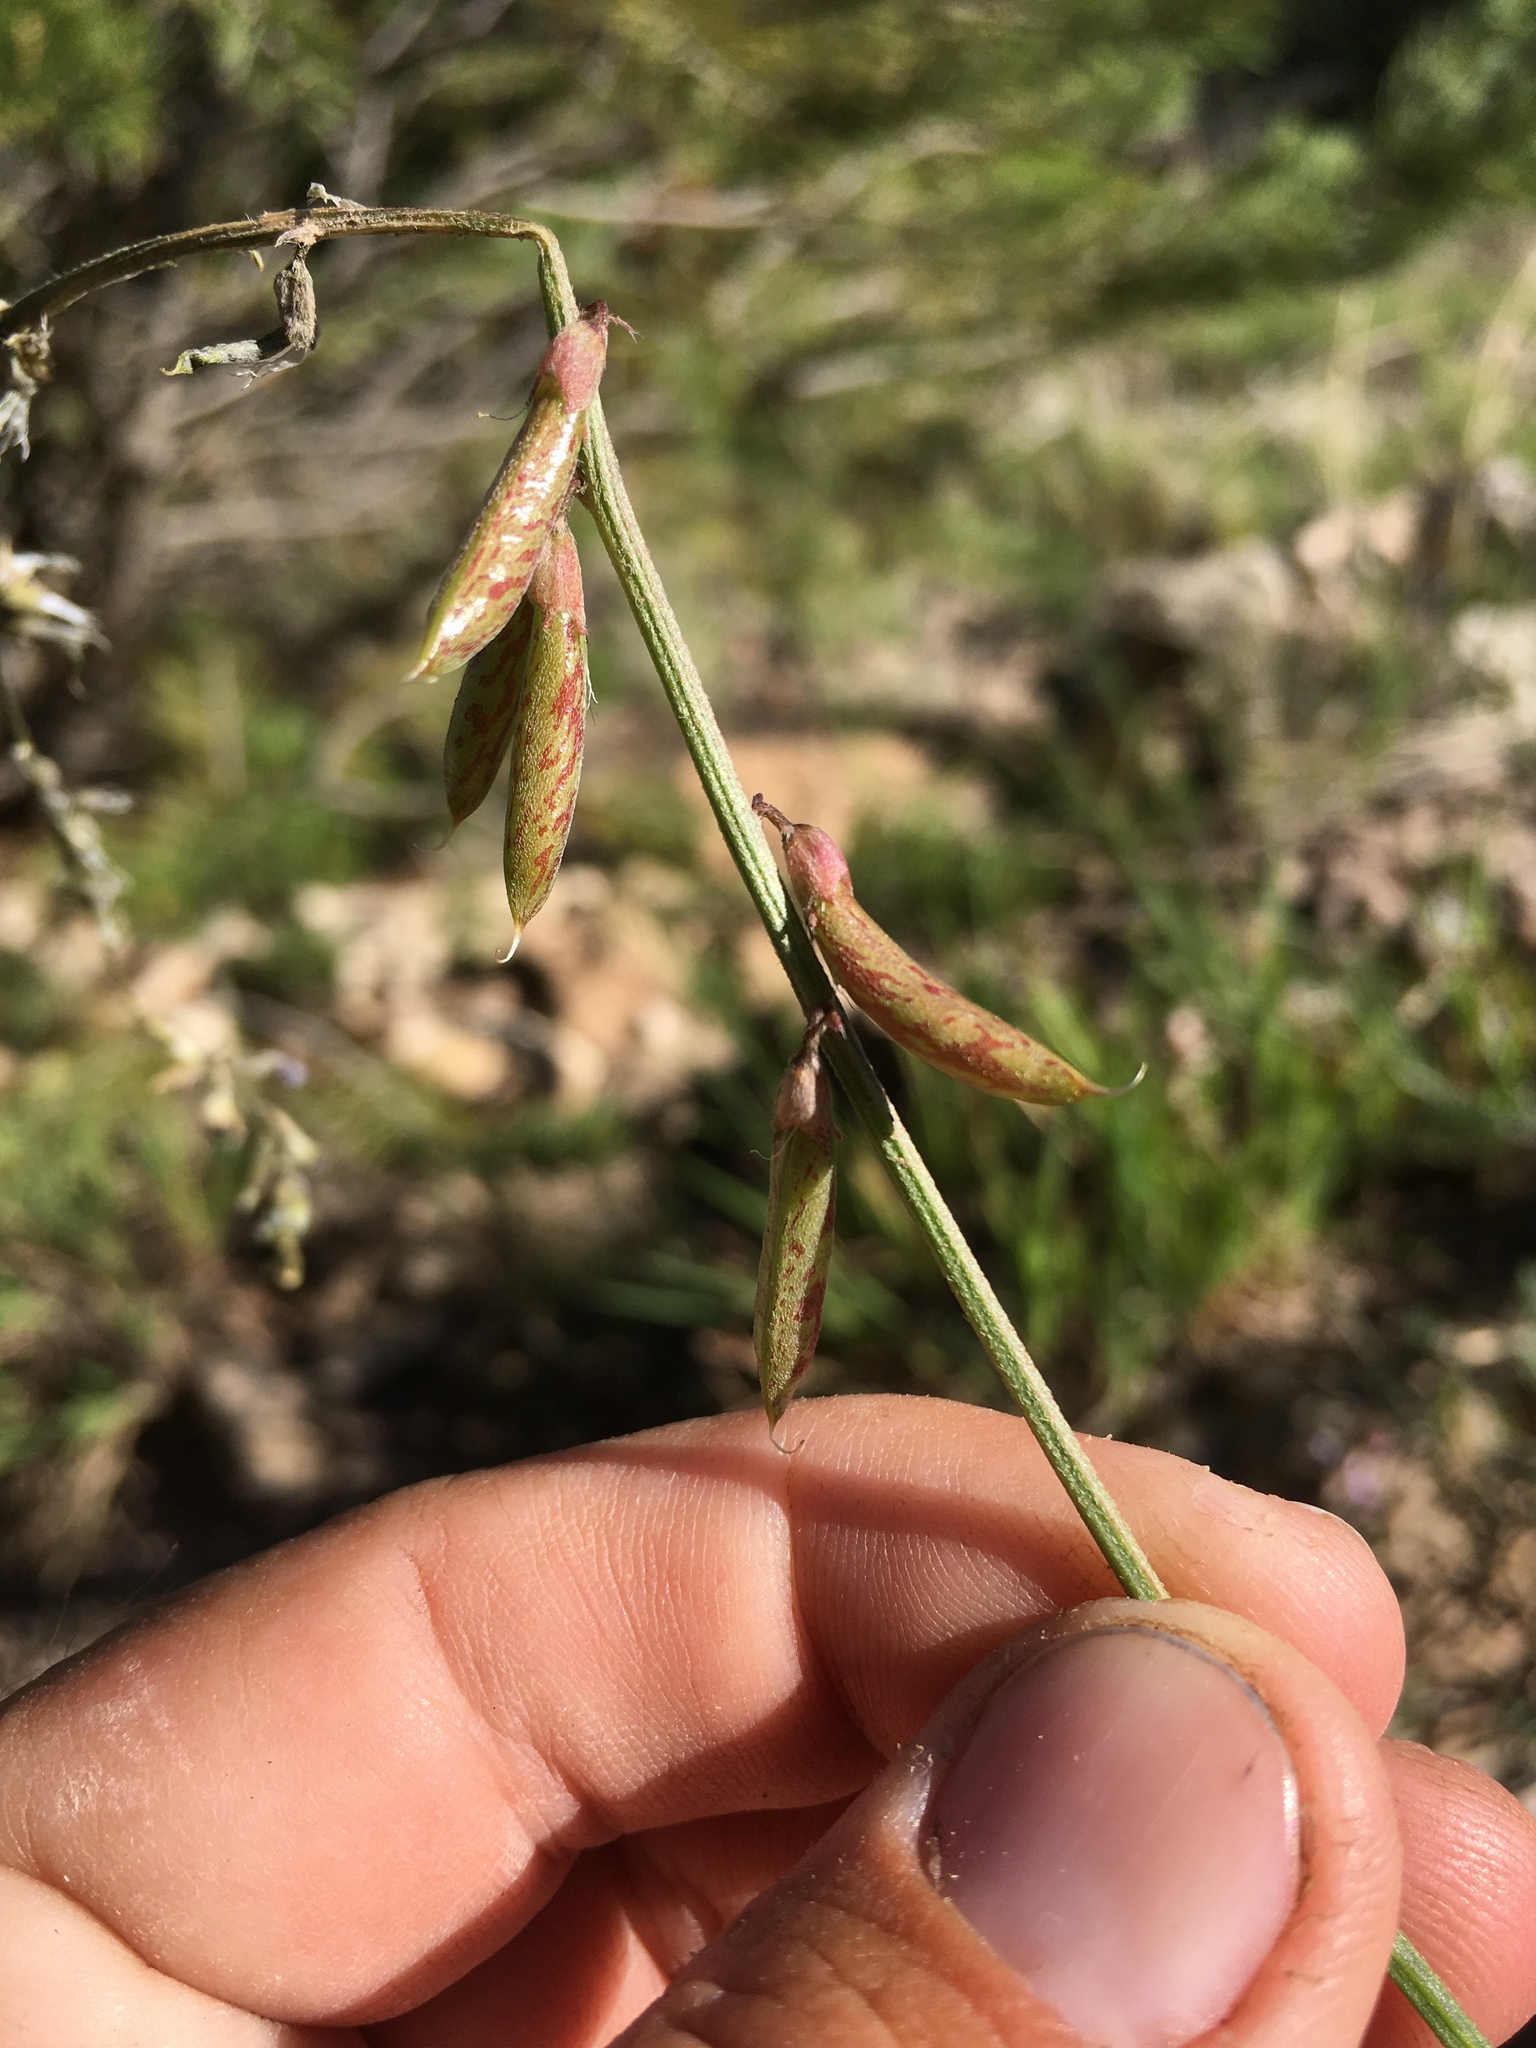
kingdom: Plantae
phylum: Tracheophyta
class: Magnoliopsida
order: Fabales
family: Fabaceae
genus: Astragalus
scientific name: Astragalus flexuosus
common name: Pliant milk-vetch
